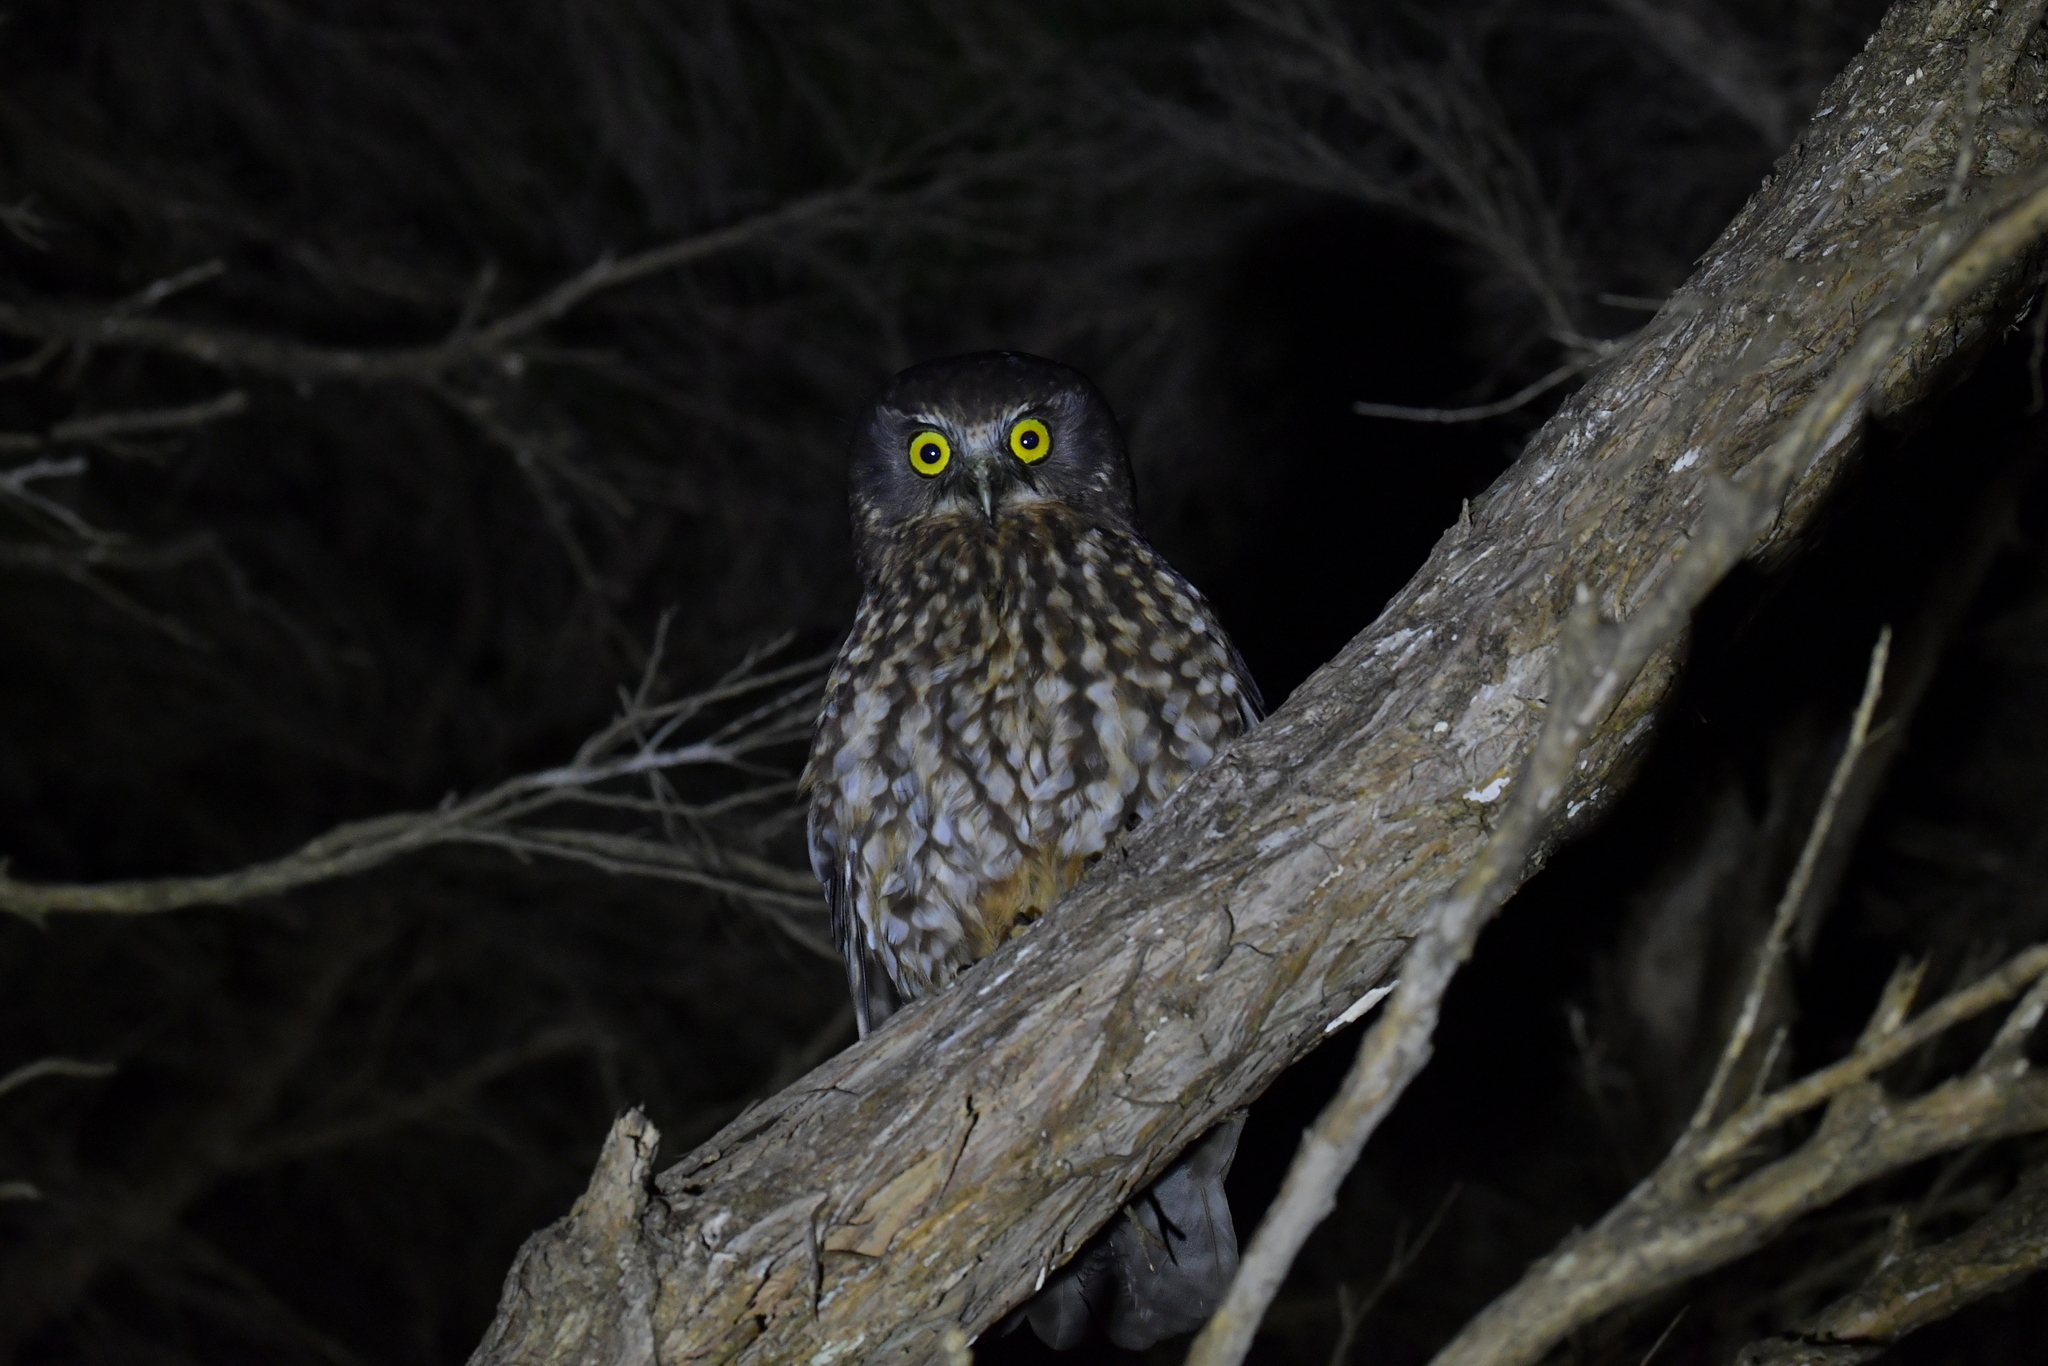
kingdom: Animalia
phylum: Chordata
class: Aves
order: Strigiformes
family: Strigidae
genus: Ninox
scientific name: Ninox novaeseelandiae
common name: Morepork
